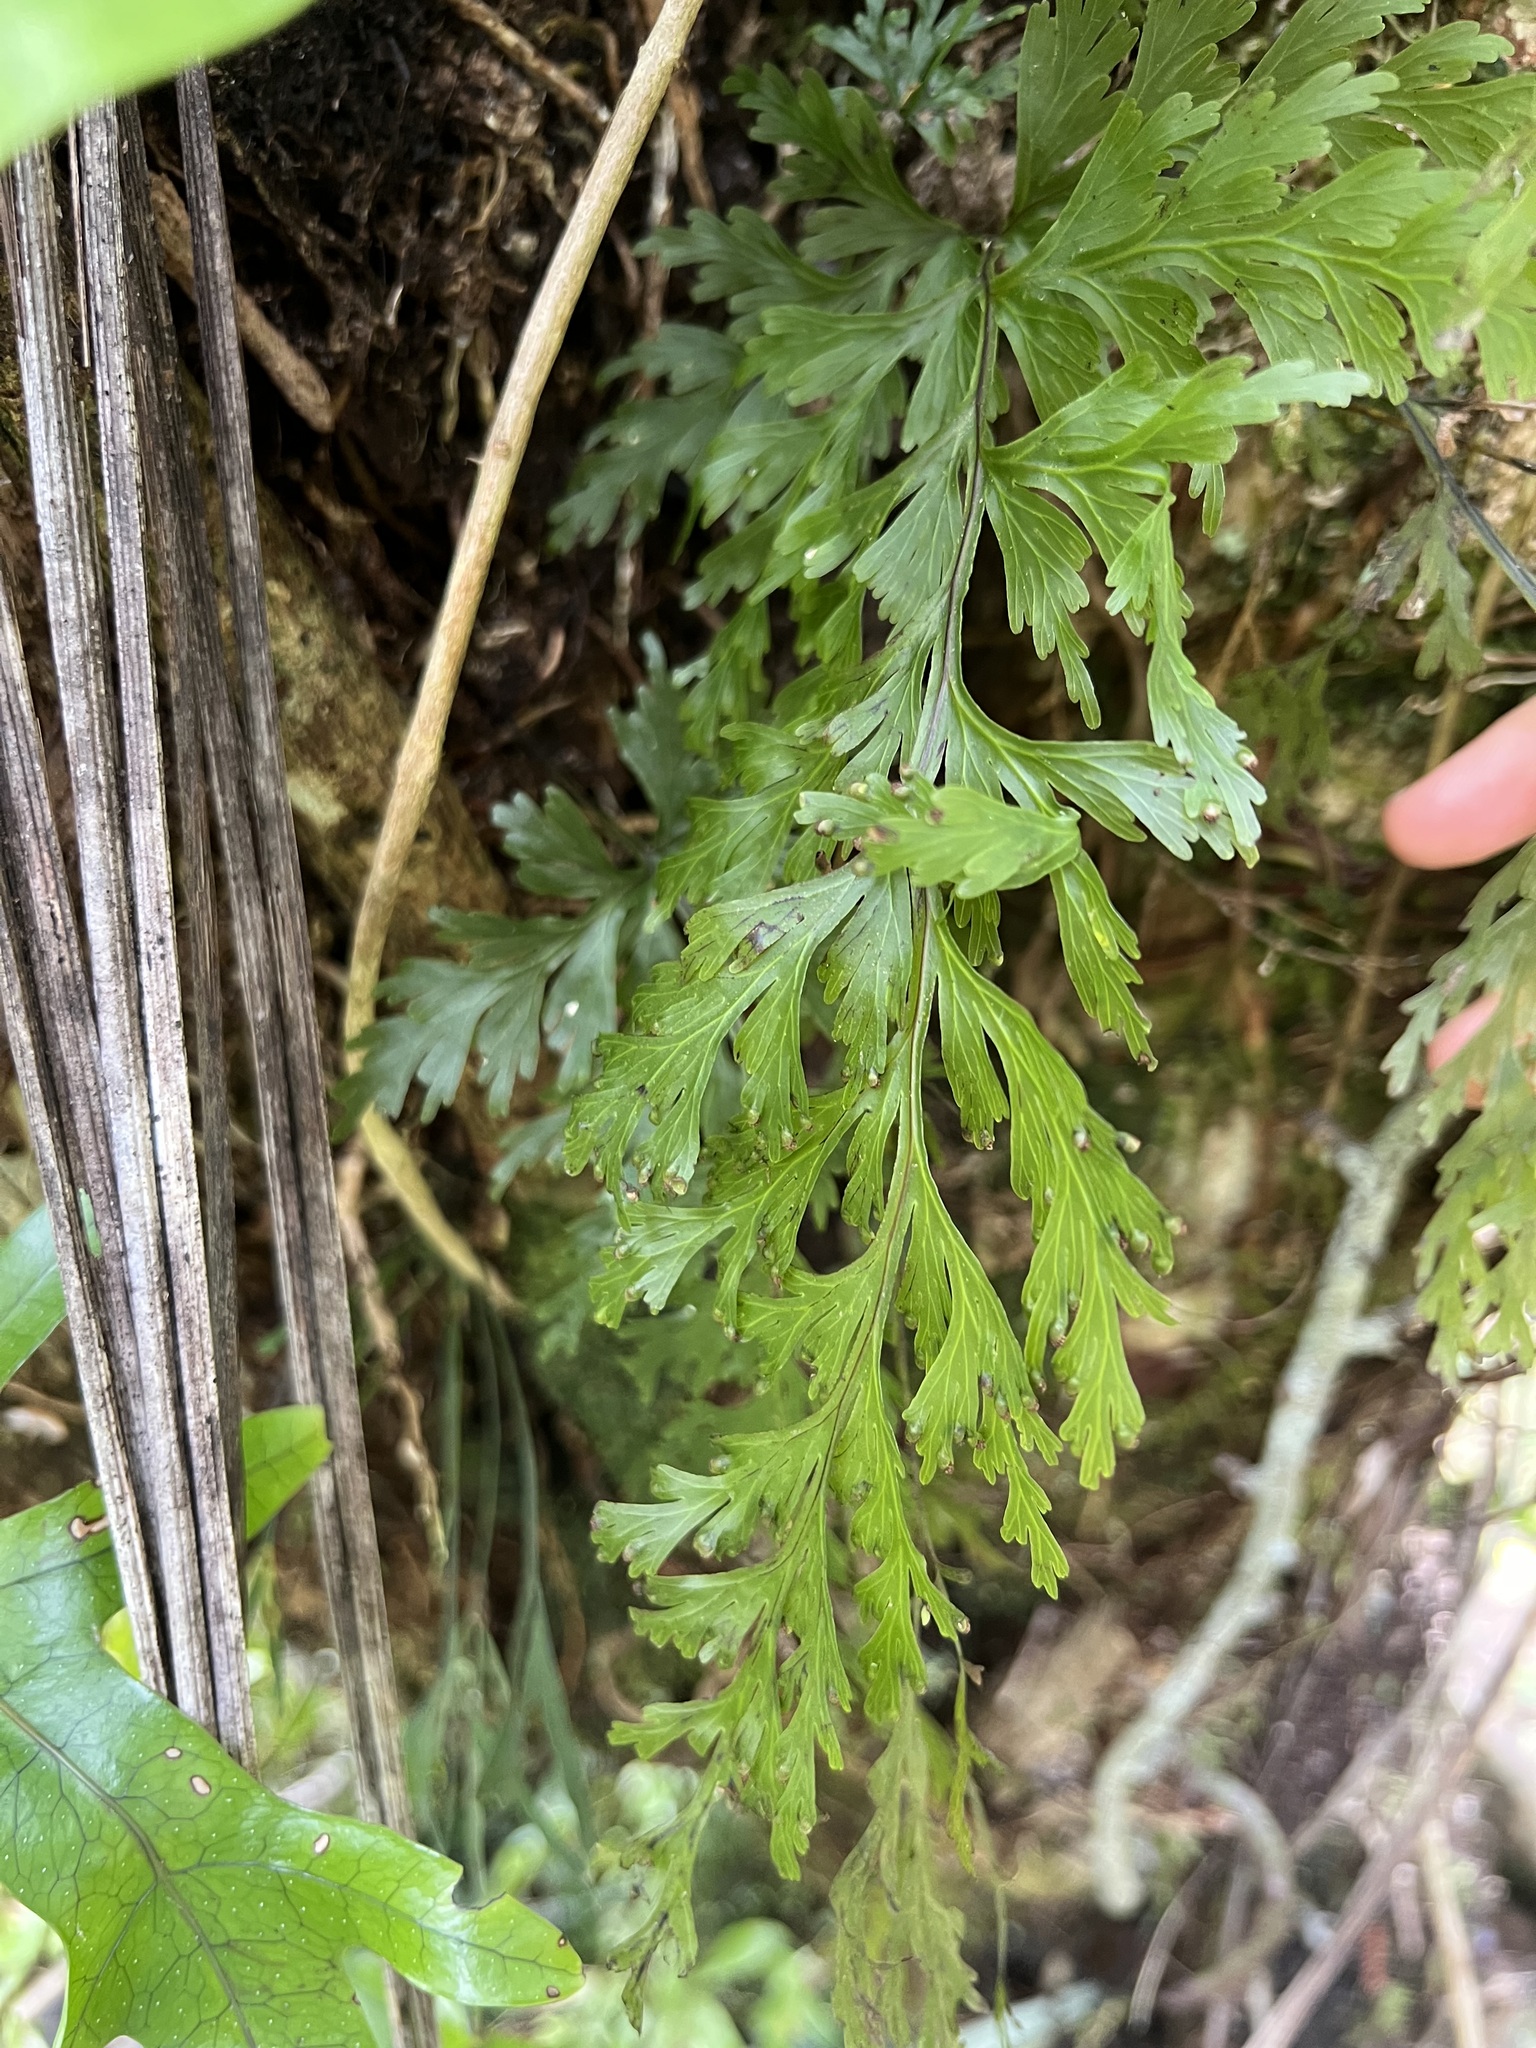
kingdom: Plantae
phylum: Tracheophyta
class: Polypodiopsida
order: Hymenophyllales
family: Hymenophyllaceae
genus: Hymenophyllum
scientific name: Hymenophyllum dilatatum
